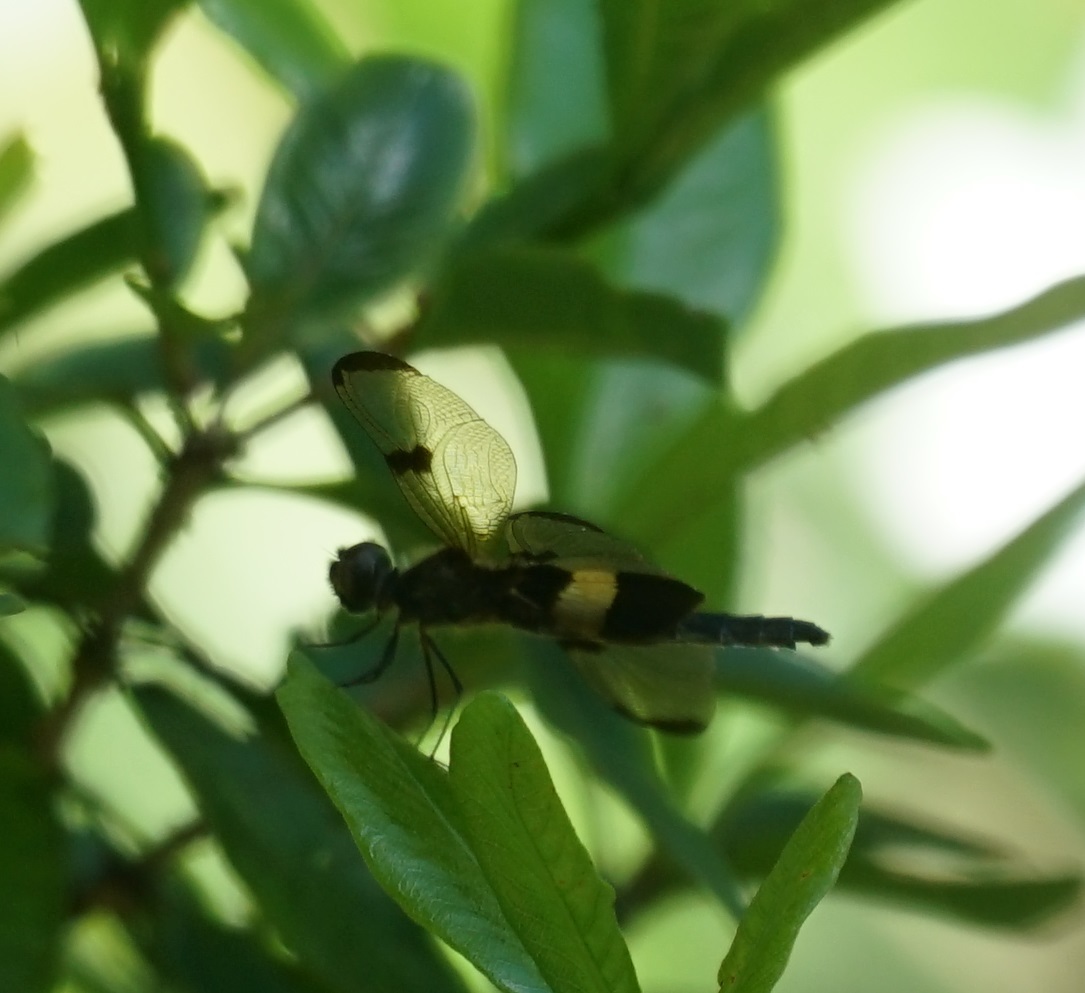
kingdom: Animalia
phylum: Arthropoda
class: Insecta
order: Odonata
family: Libellulidae
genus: Rhyothemis
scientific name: Rhyothemis phyllis
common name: Yellow-barred flutterer
